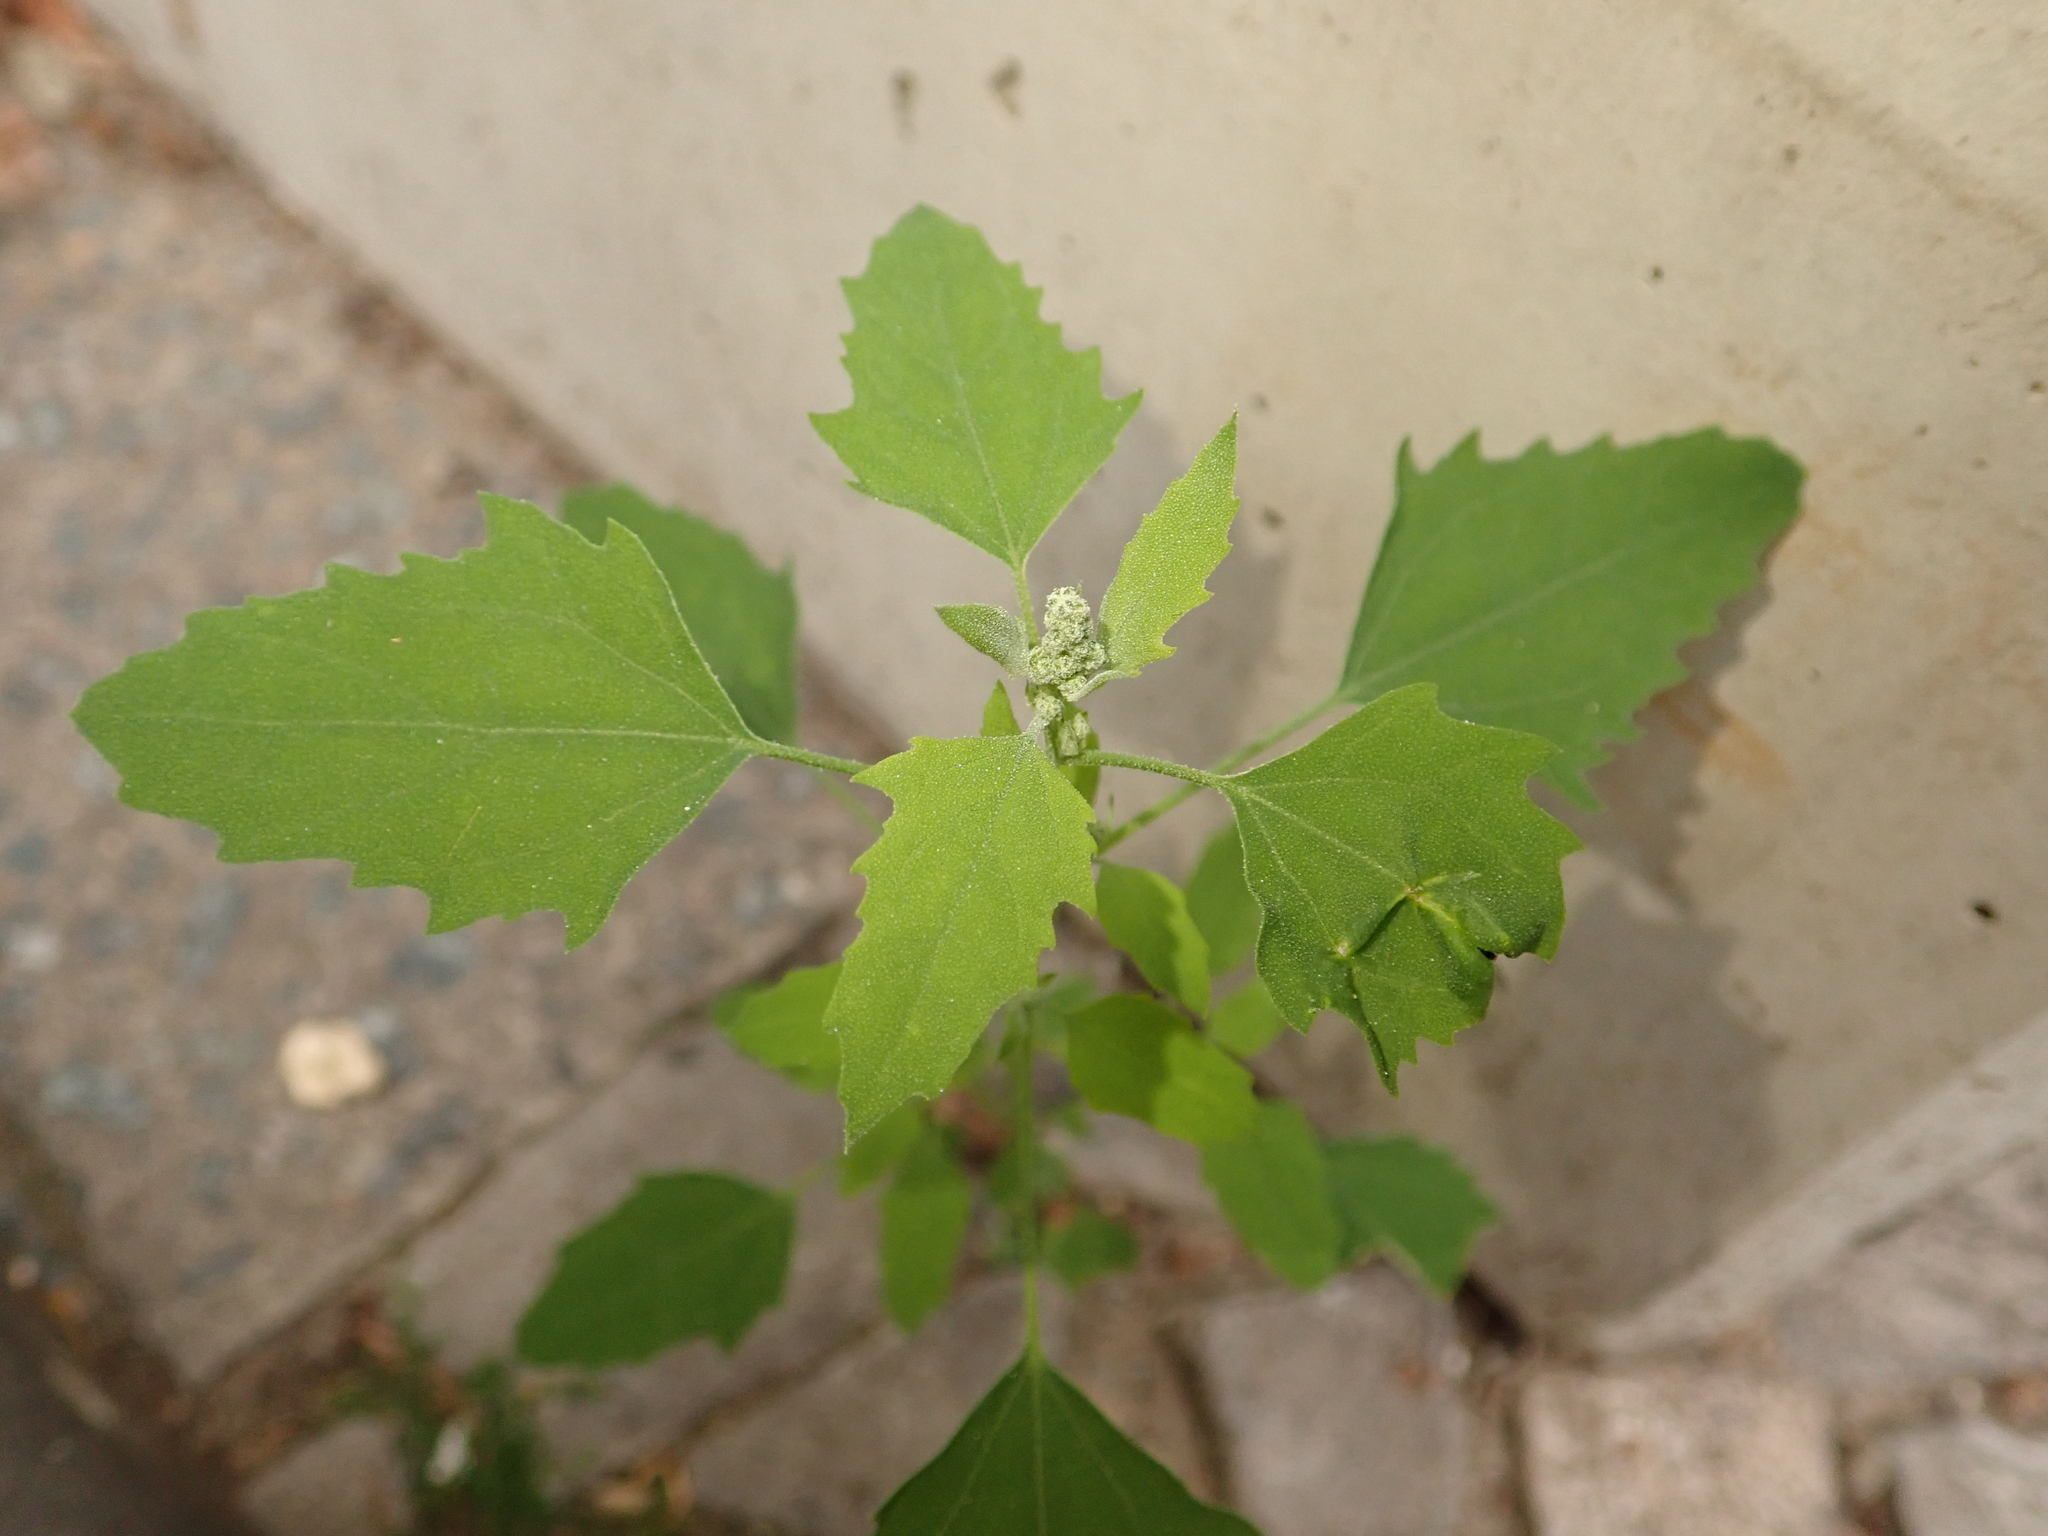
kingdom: Plantae
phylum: Tracheophyta
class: Magnoliopsida
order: Caryophyllales
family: Amaranthaceae
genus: Chenopodium
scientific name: Chenopodium album
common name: Fat-hen
